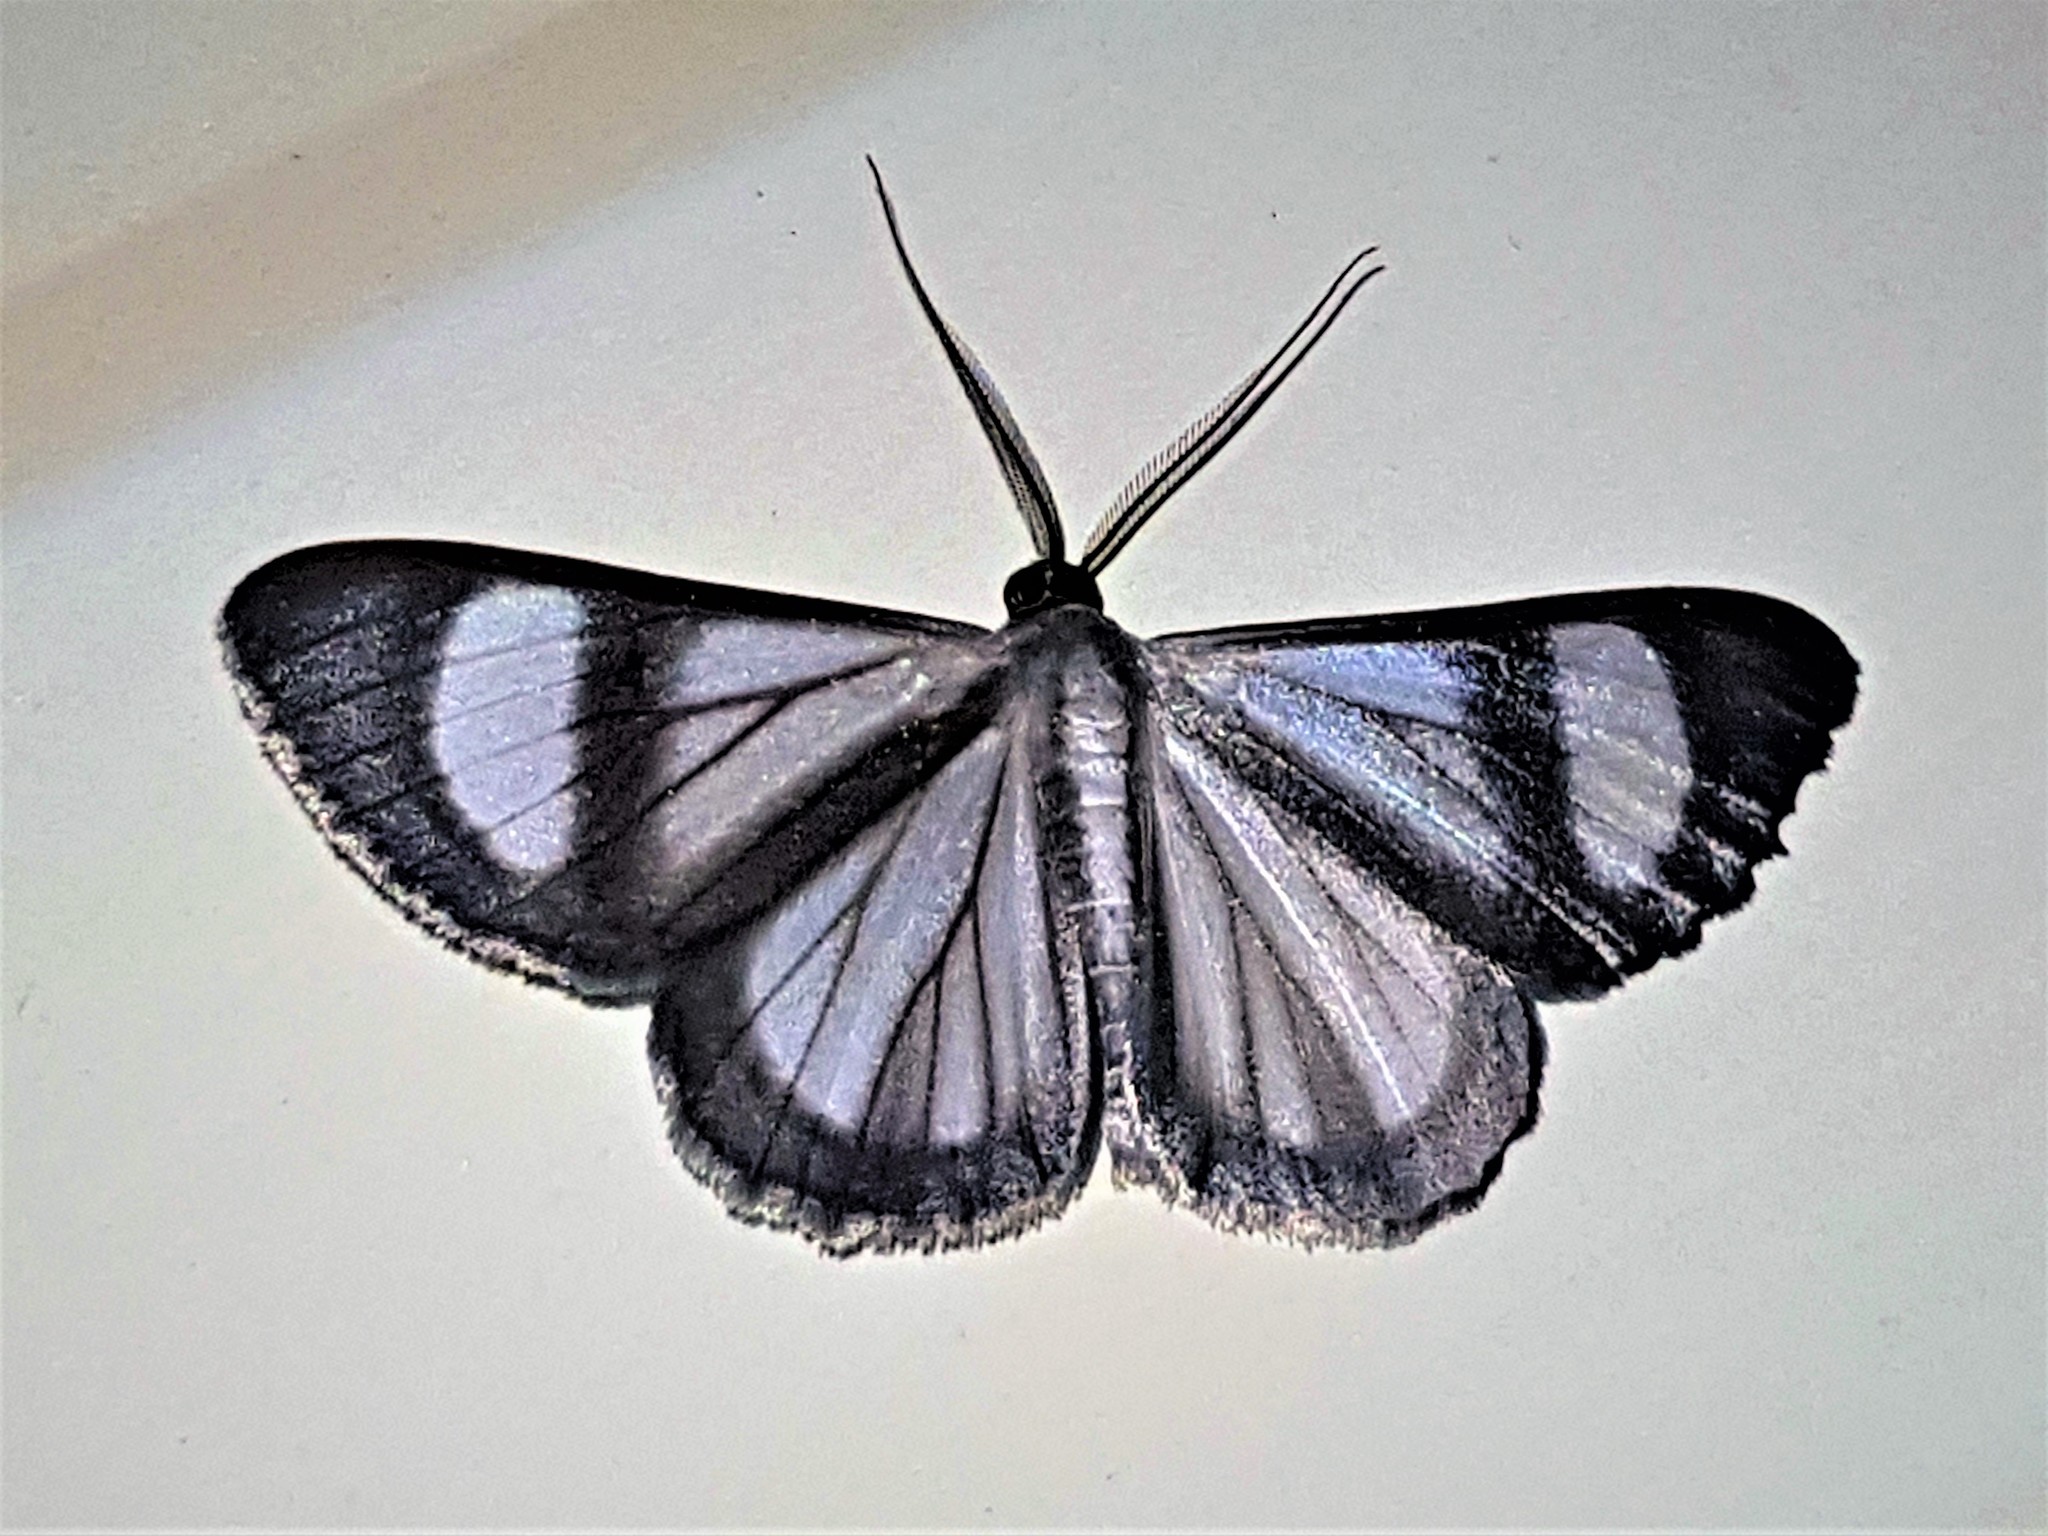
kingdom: Animalia
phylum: Arthropoda
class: Insecta
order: Lepidoptera
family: Geometridae
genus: Genussa
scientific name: Genussa famulata
